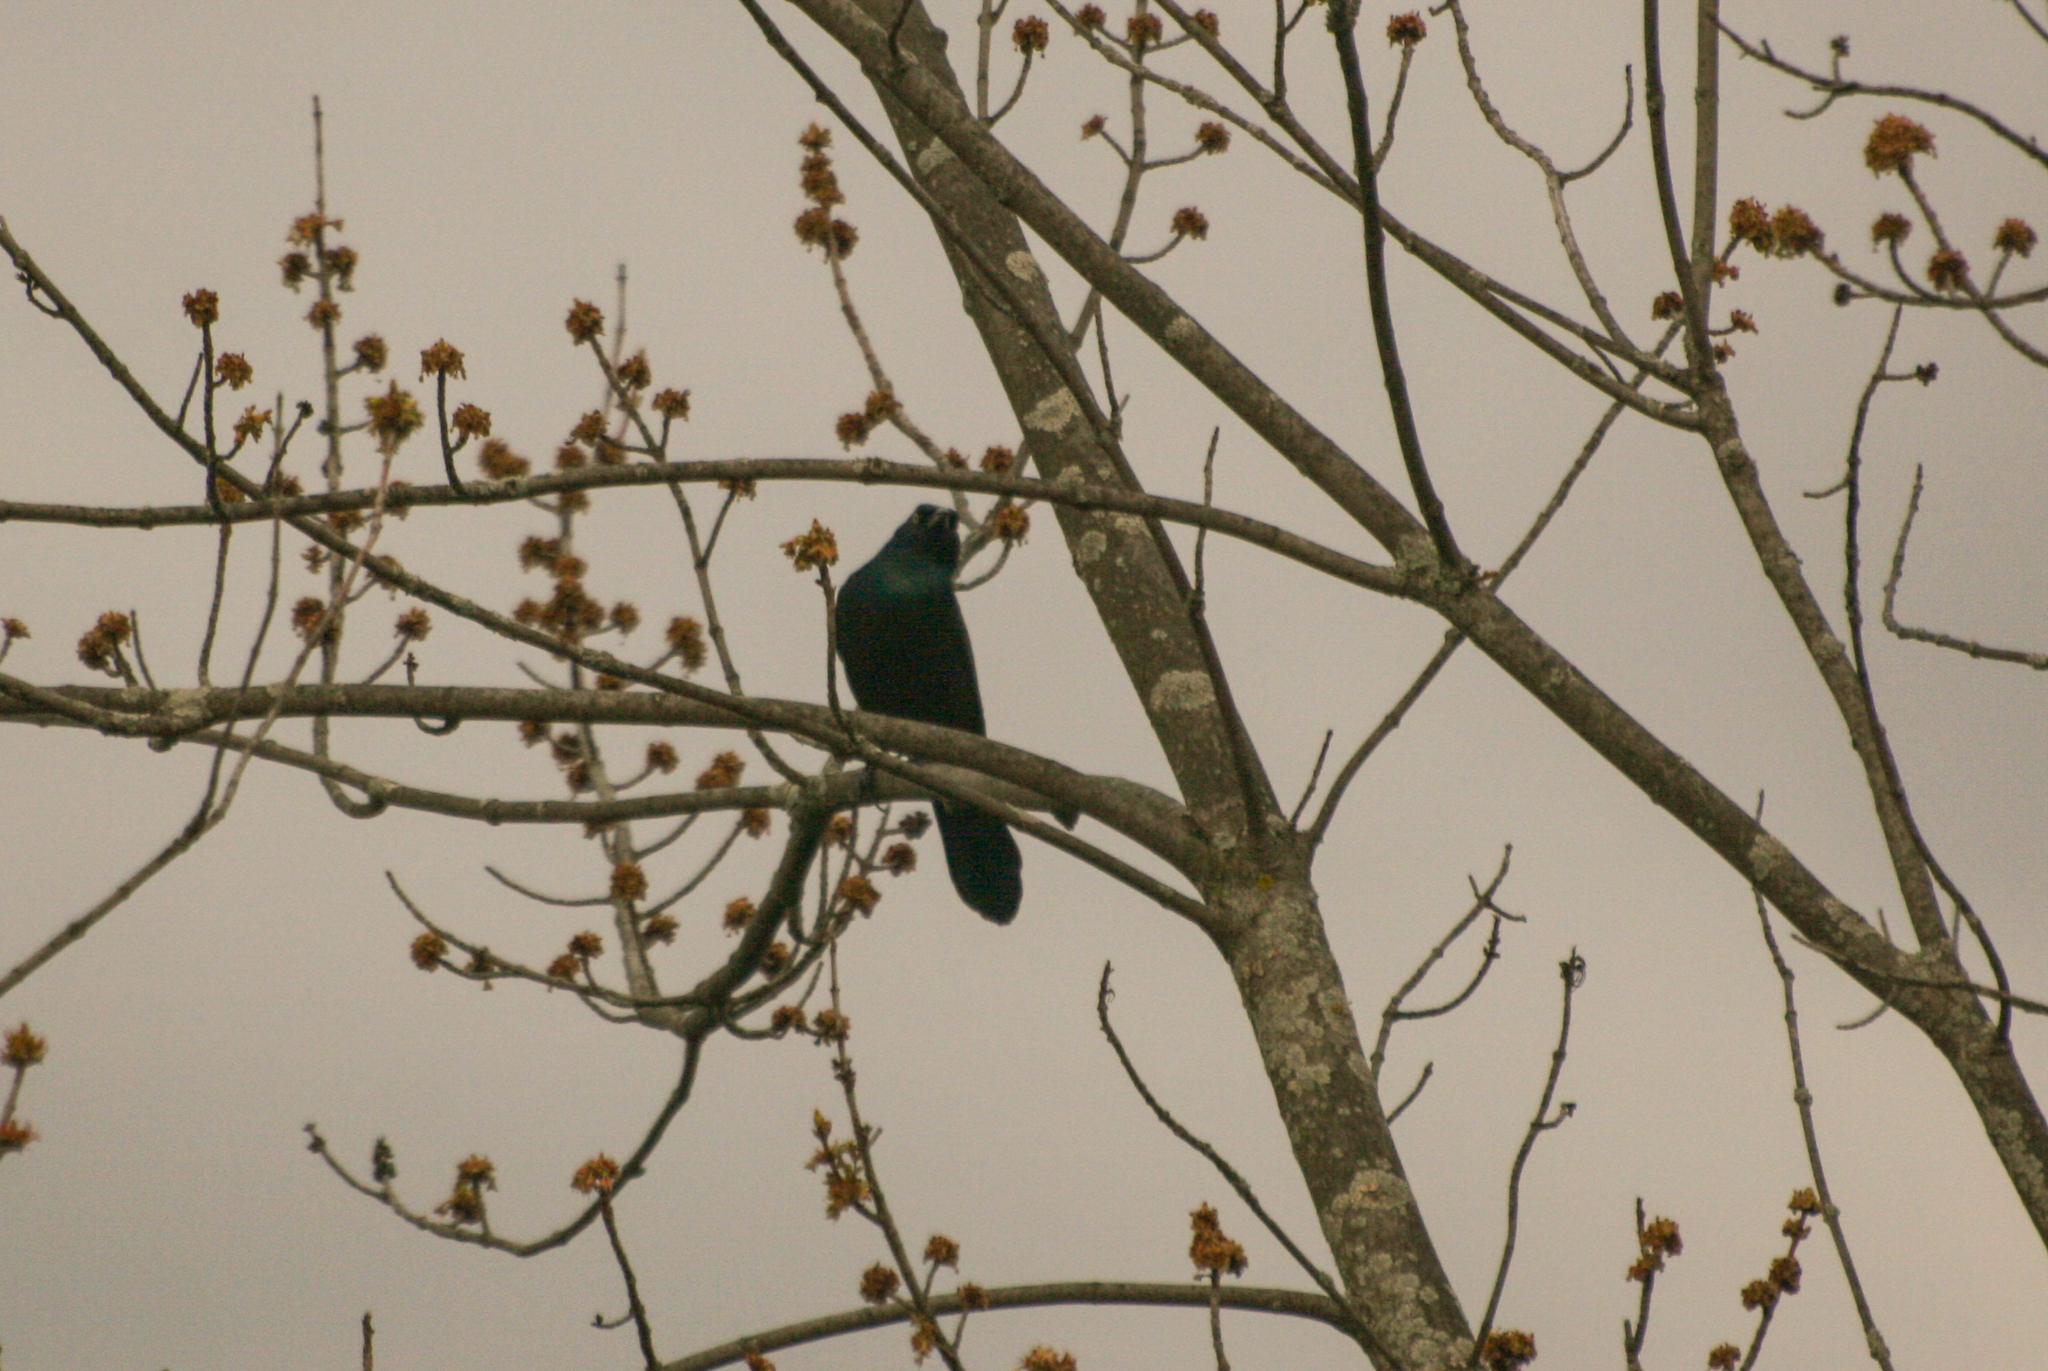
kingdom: Animalia
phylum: Chordata
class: Aves
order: Passeriformes
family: Icteridae
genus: Quiscalus
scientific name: Quiscalus quiscula
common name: Common grackle
